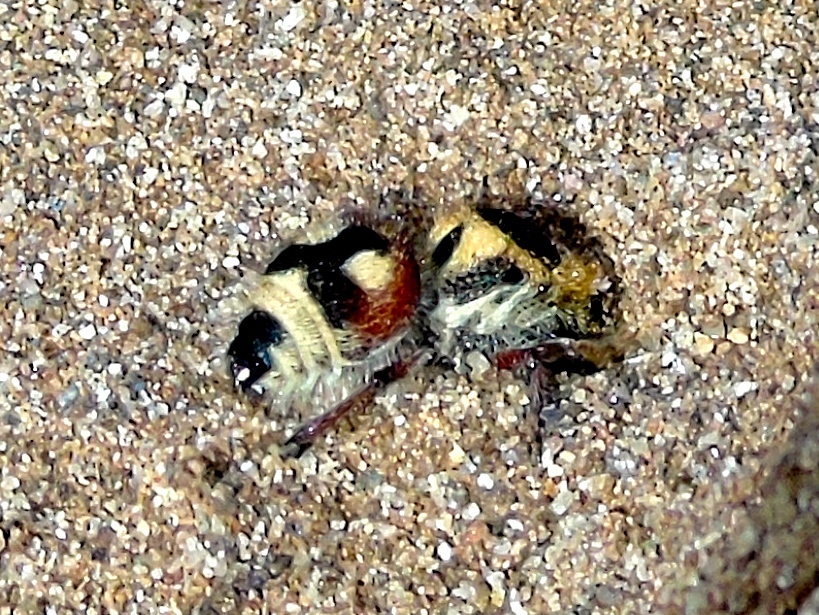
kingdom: Animalia
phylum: Arthropoda
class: Insecta
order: Hymenoptera
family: Mutillidae
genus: Dasymutilla
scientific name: Dasymutilla
